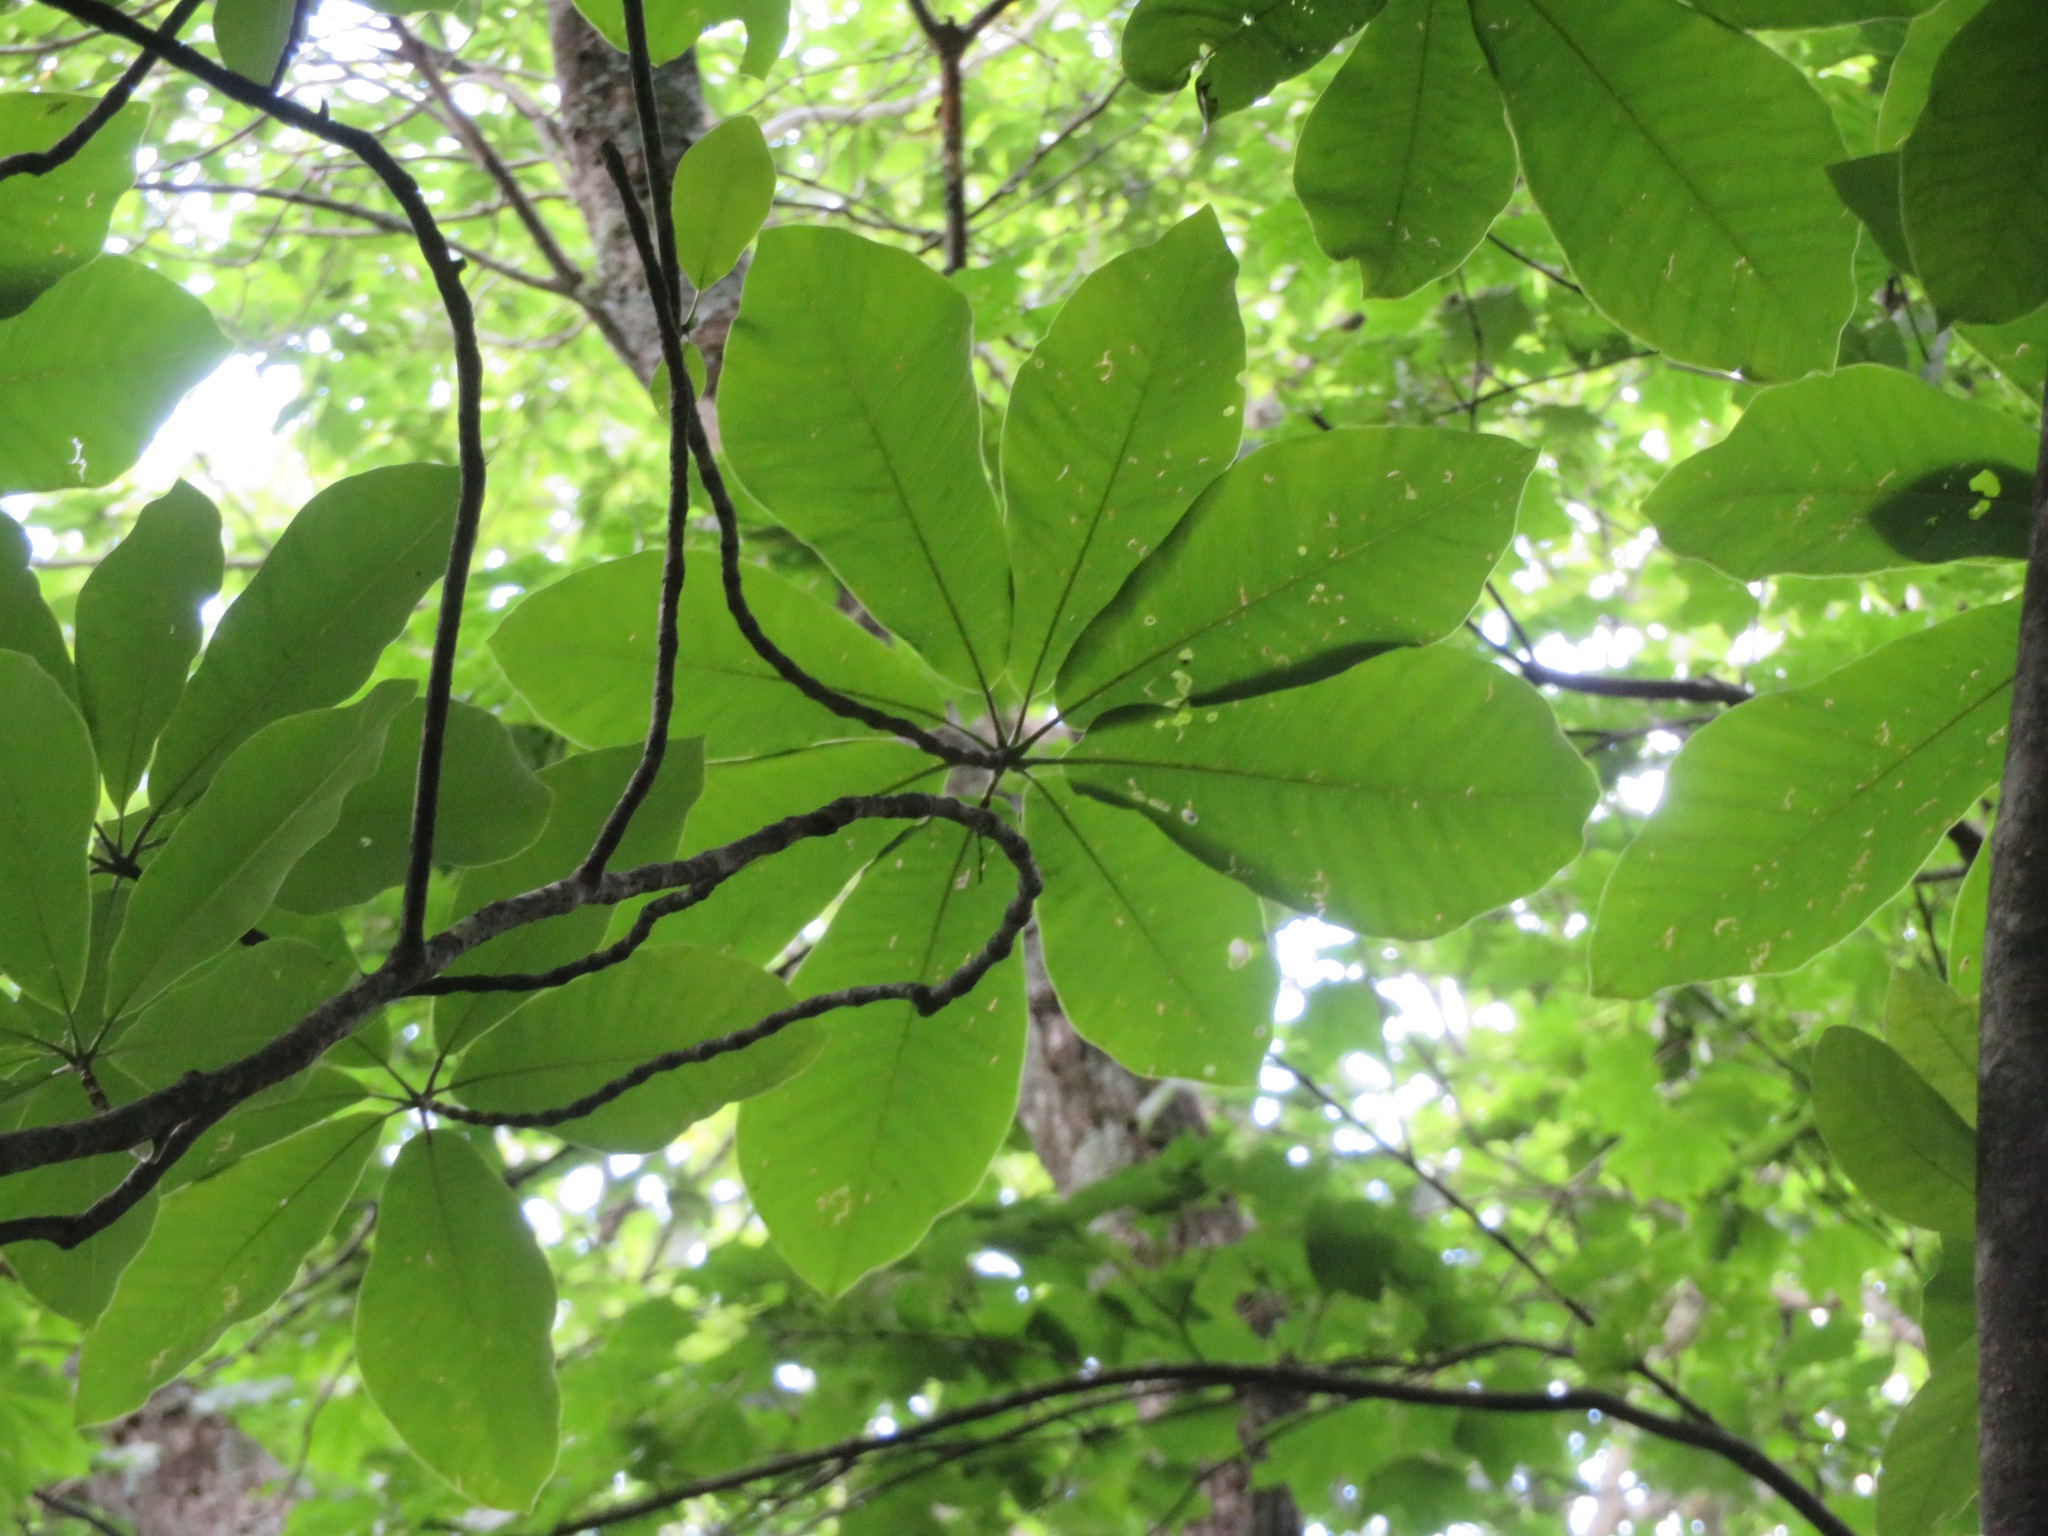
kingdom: Plantae
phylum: Tracheophyta
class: Magnoliopsida
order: Magnoliales
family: Magnoliaceae
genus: Magnolia
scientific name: Magnolia obovata
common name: Japanese whitebark magnolia
